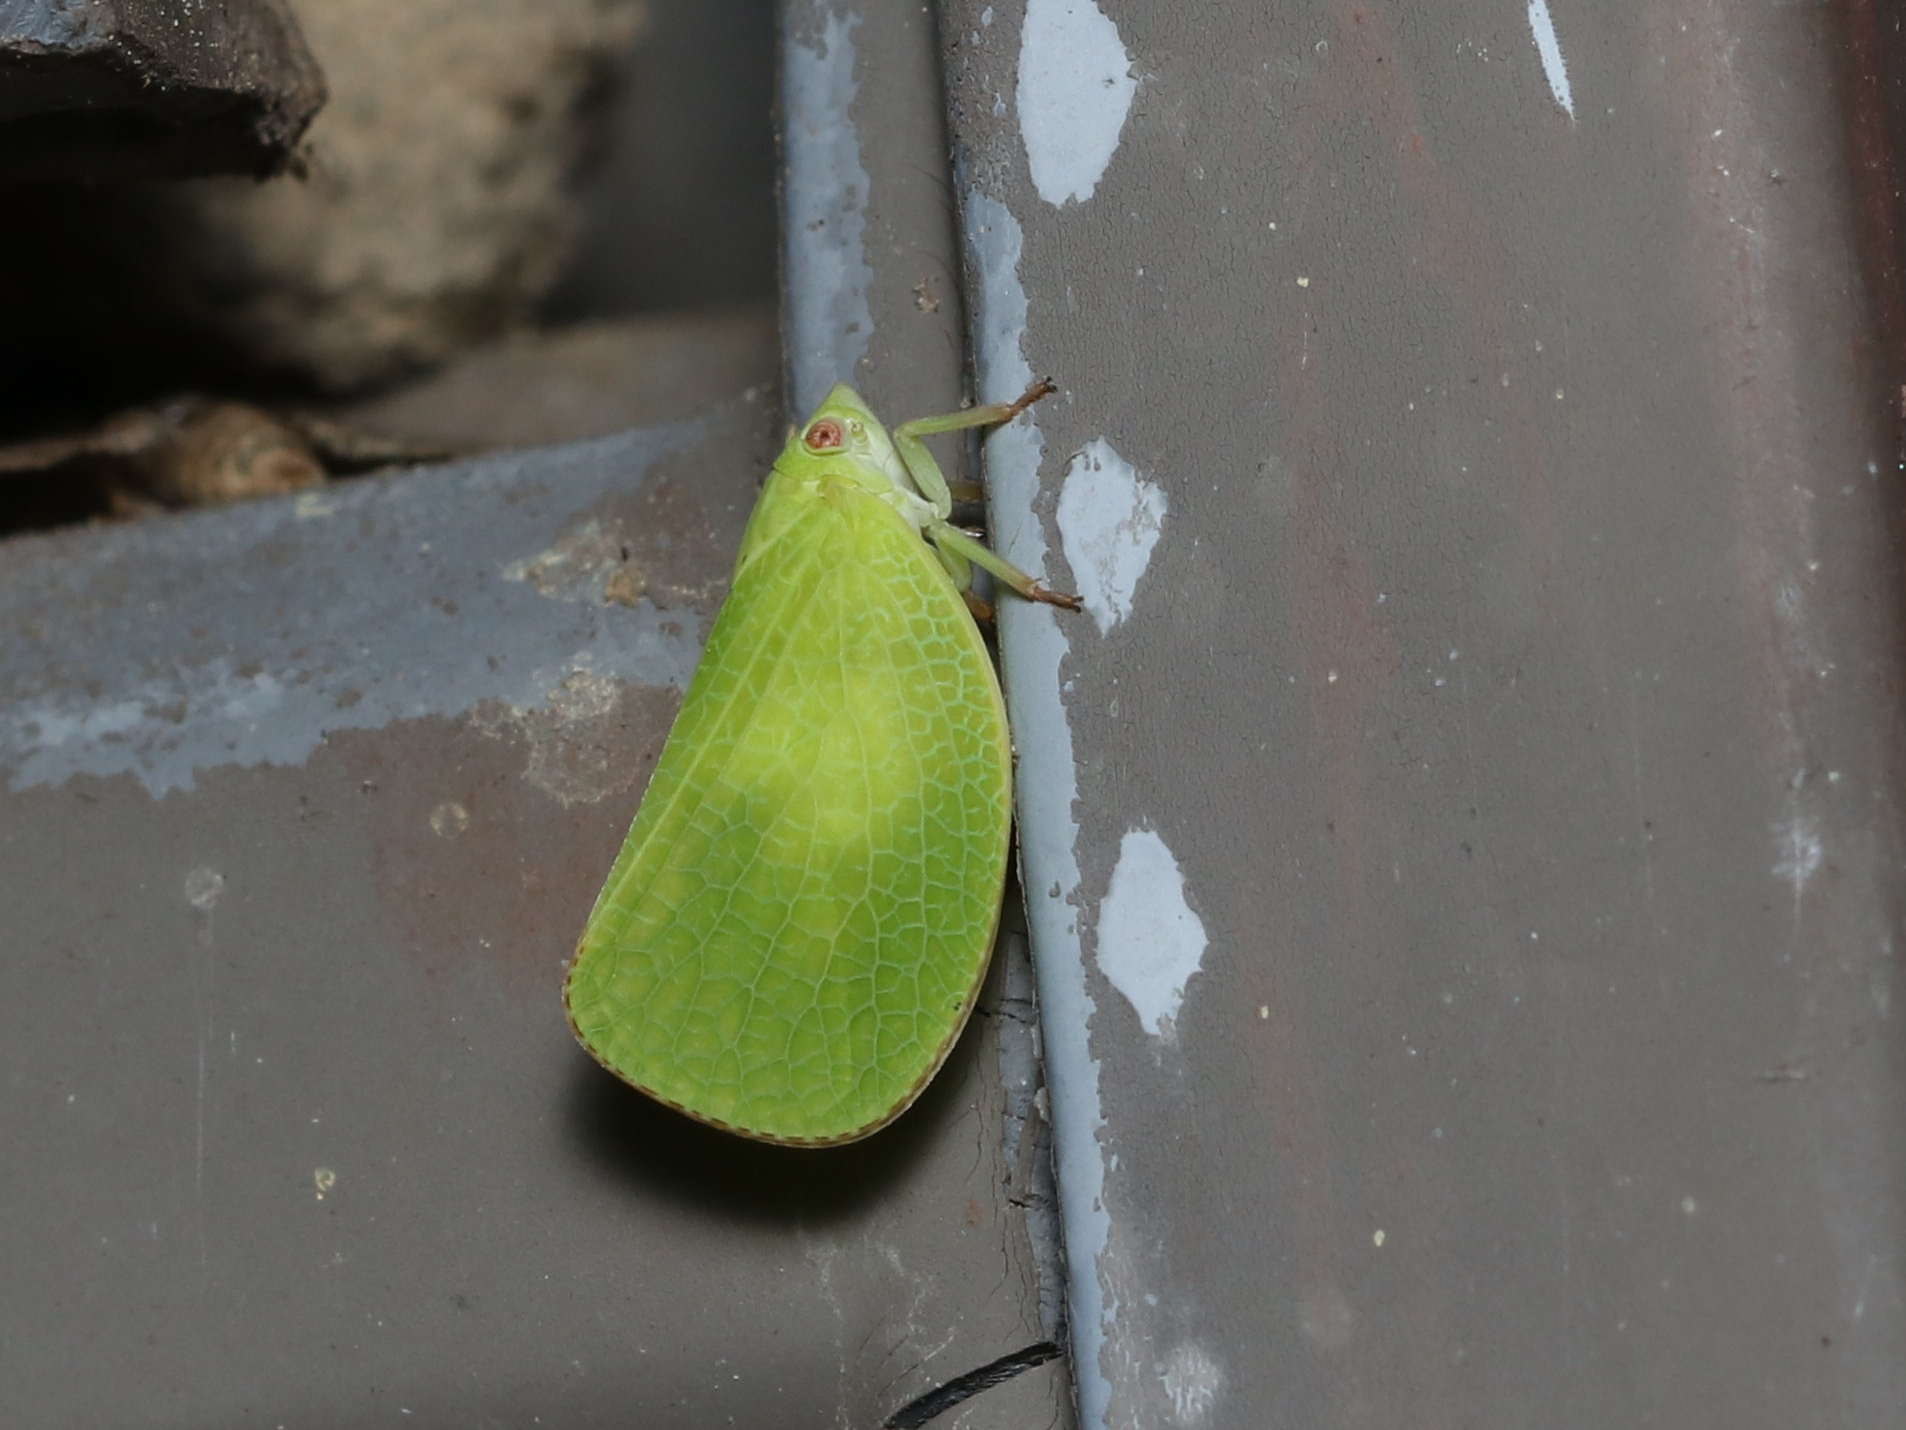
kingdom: Animalia
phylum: Arthropoda
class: Insecta
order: Hemiptera
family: Acanaloniidae
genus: Acanalonia
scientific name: Acanalonia conica
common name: Green cone-headed planthopper
